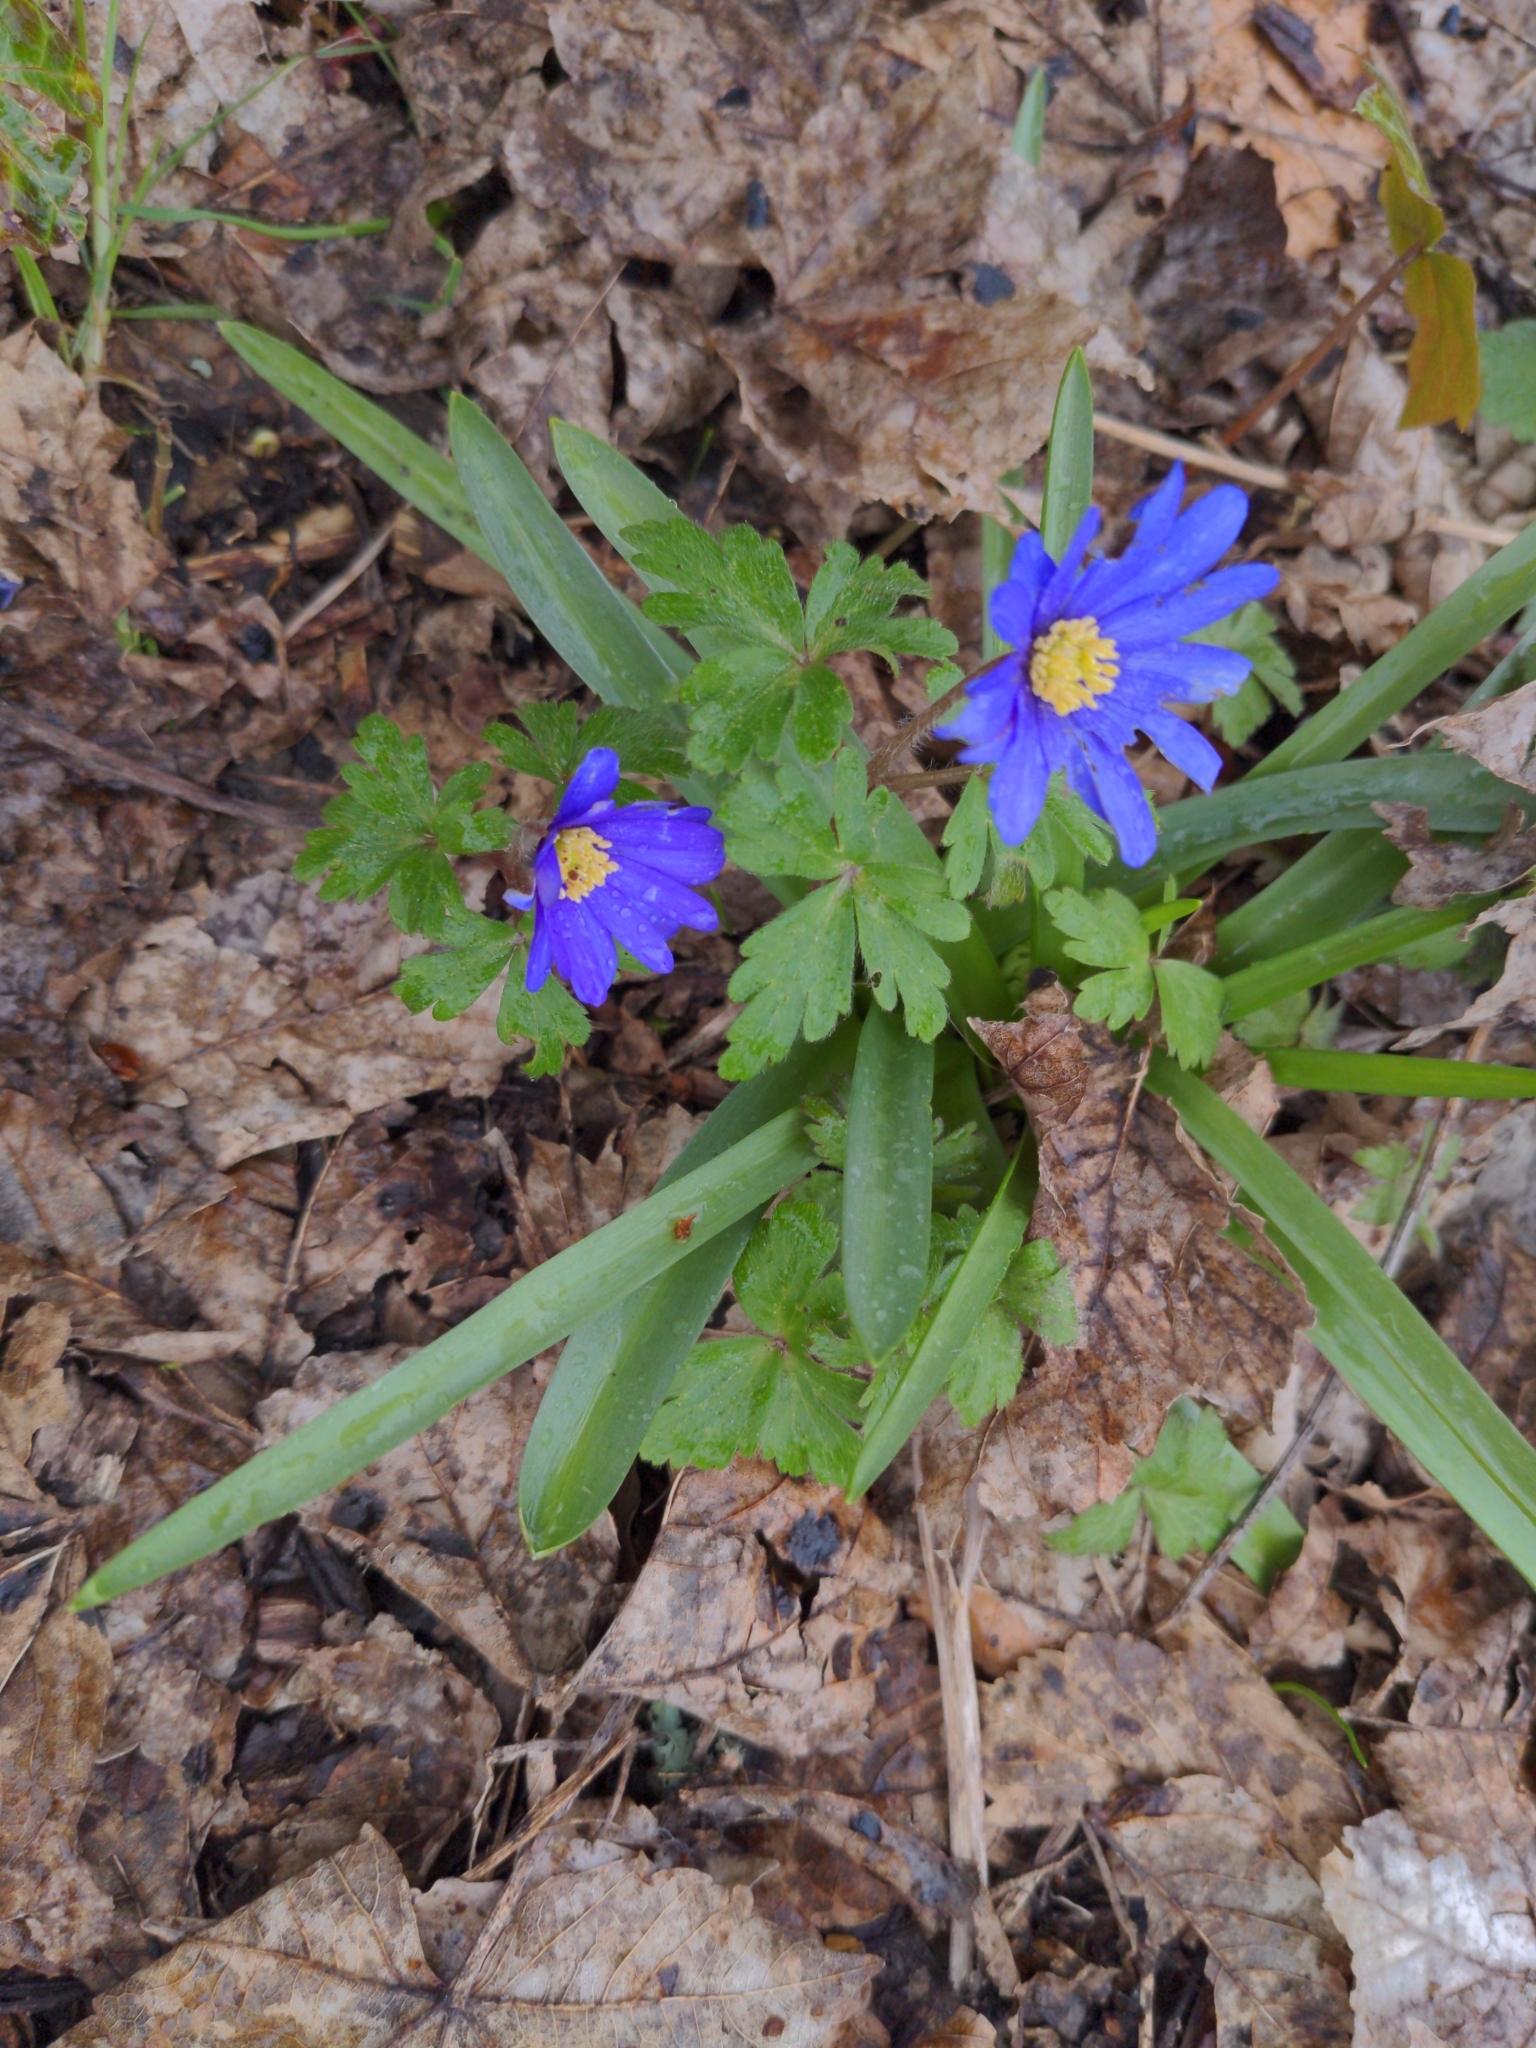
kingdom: Plantae
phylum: Tracheophyta
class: Magnoliopsida
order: Ranunculales
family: Ranunculaceae
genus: Anemone
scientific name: Anemone blanda
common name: Balkan anemone
